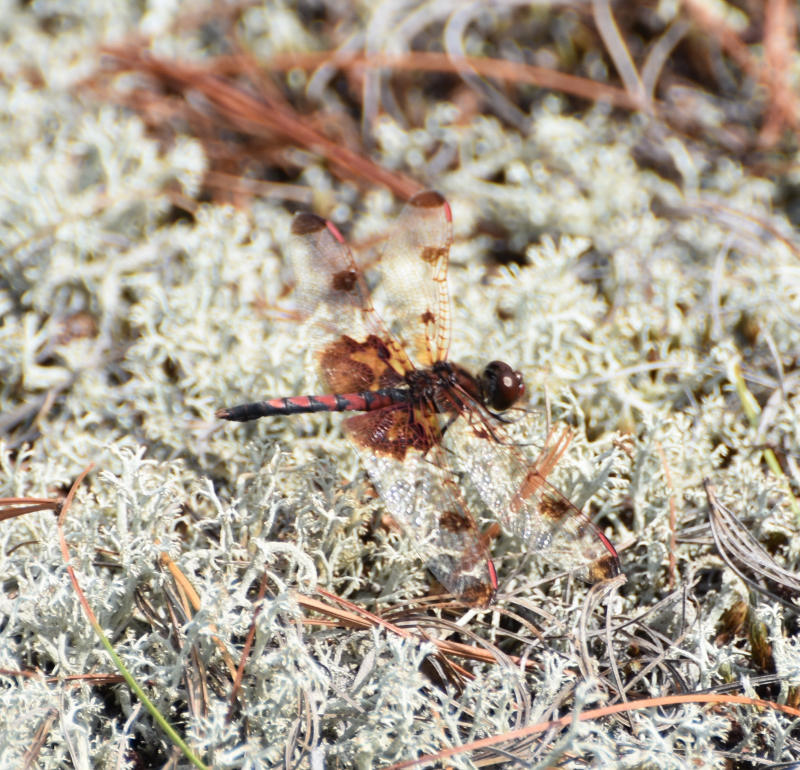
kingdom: Animalia
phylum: Arthropoda
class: Insecta
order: Odonata
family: Libellulidae
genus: Celithemis
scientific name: Celithemis elisa
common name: Calico pennant
